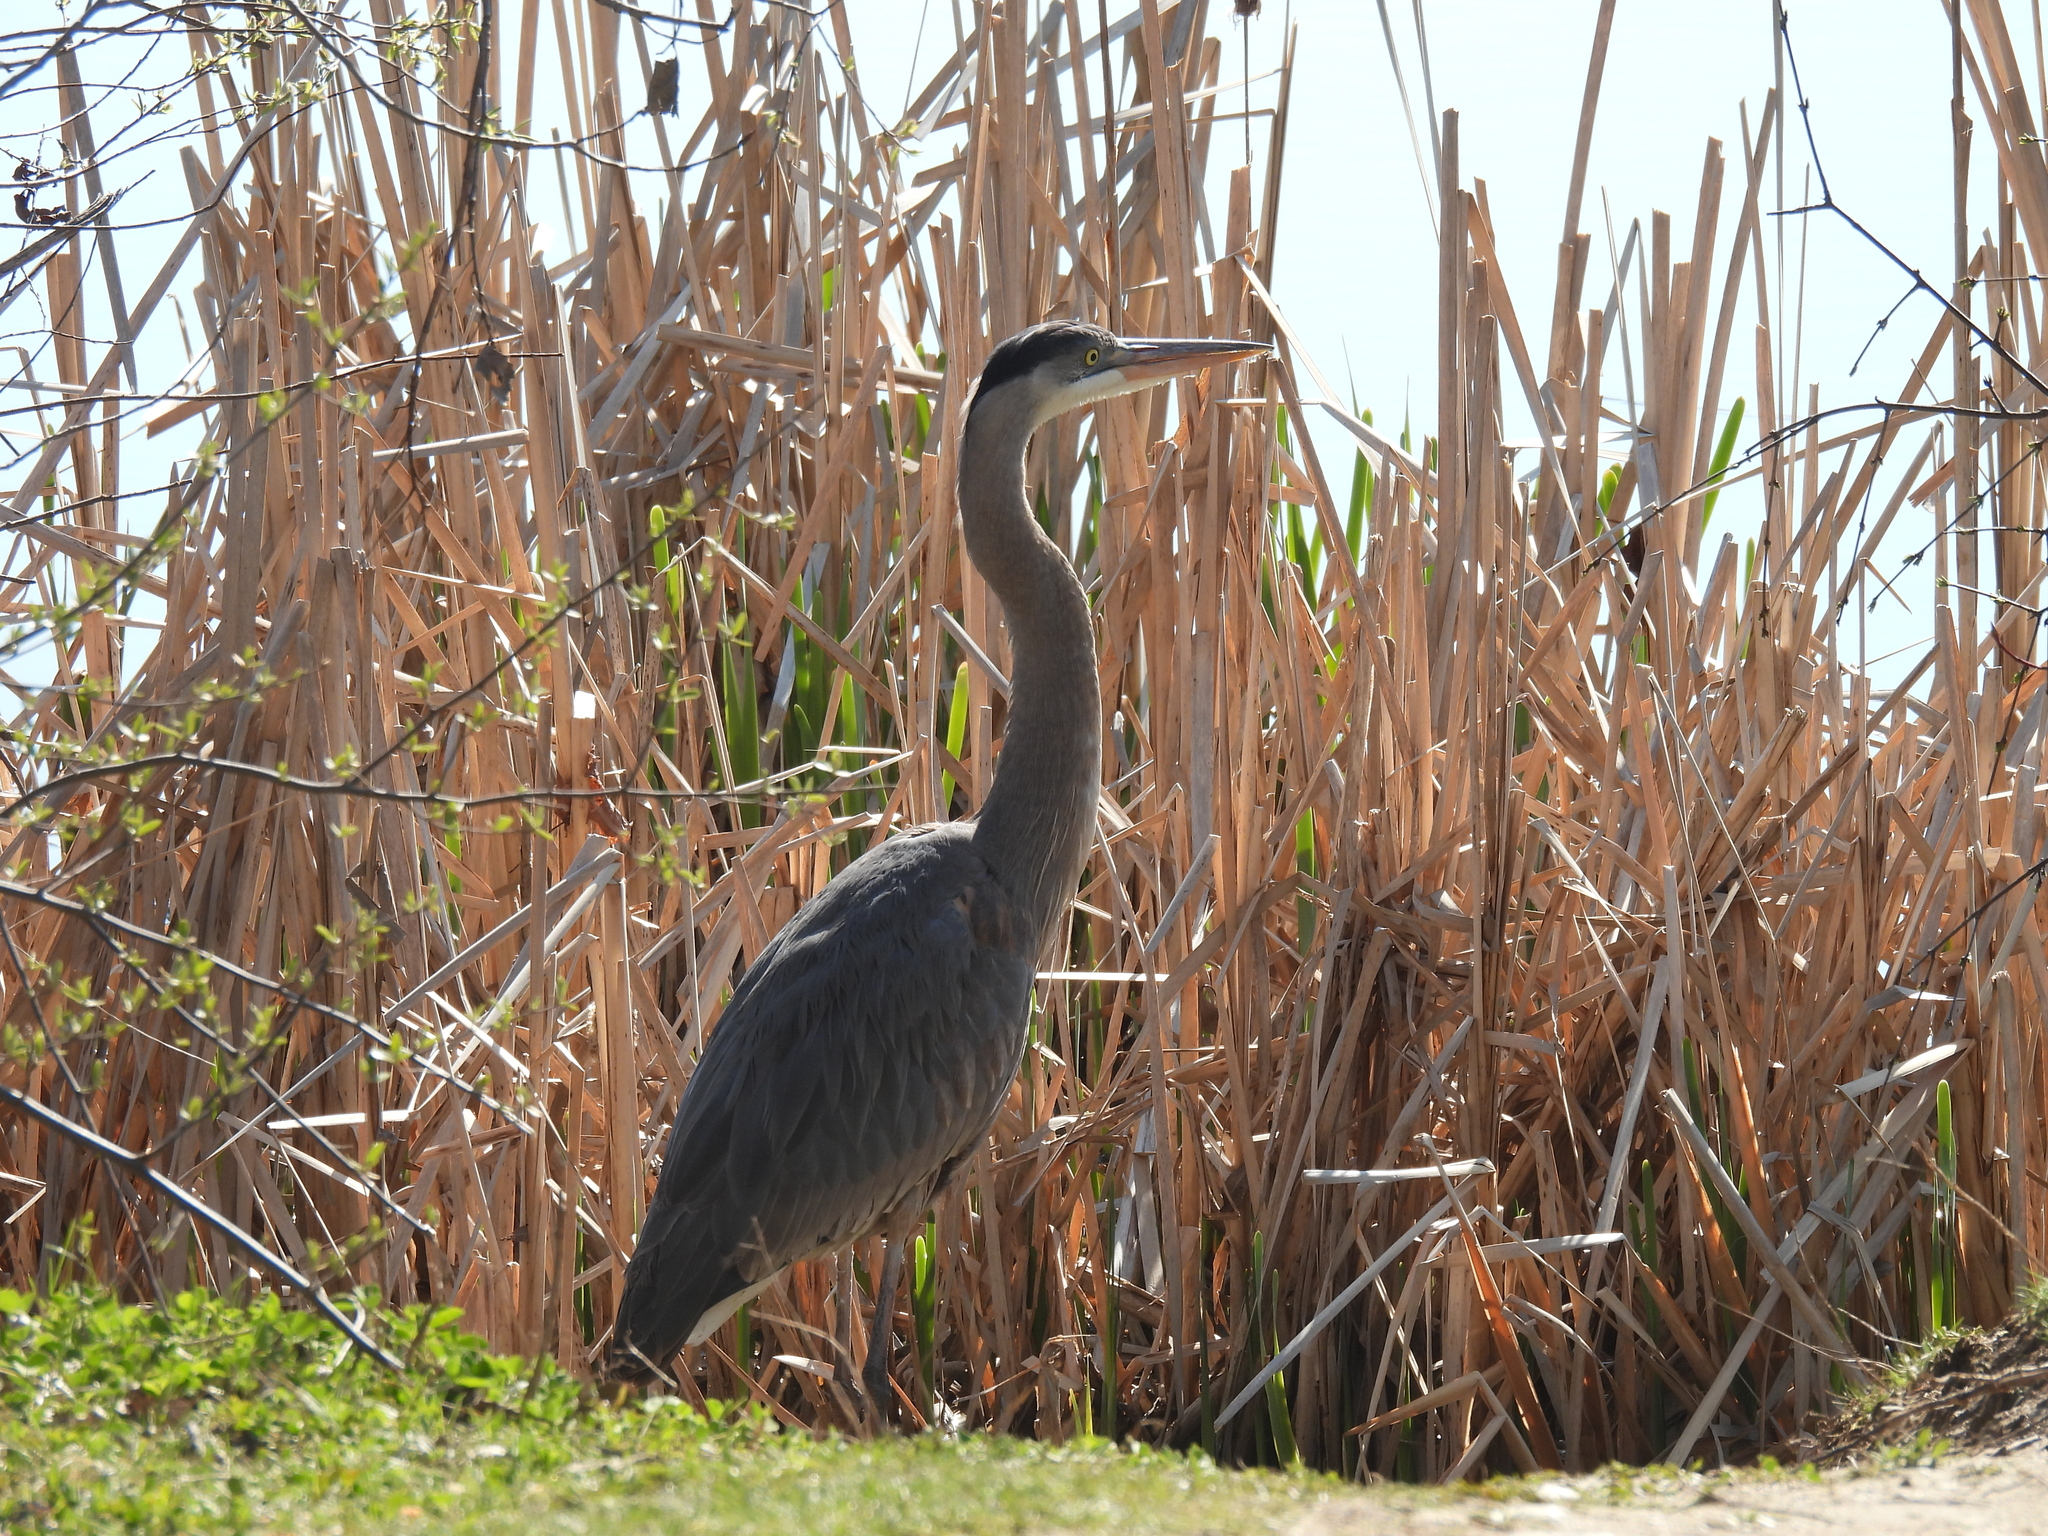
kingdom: Animalia
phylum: Chordata
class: Aves
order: Pelecaniformes
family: Ardeidae
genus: Ardea
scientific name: Ardea herodias
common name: Great blue heron
